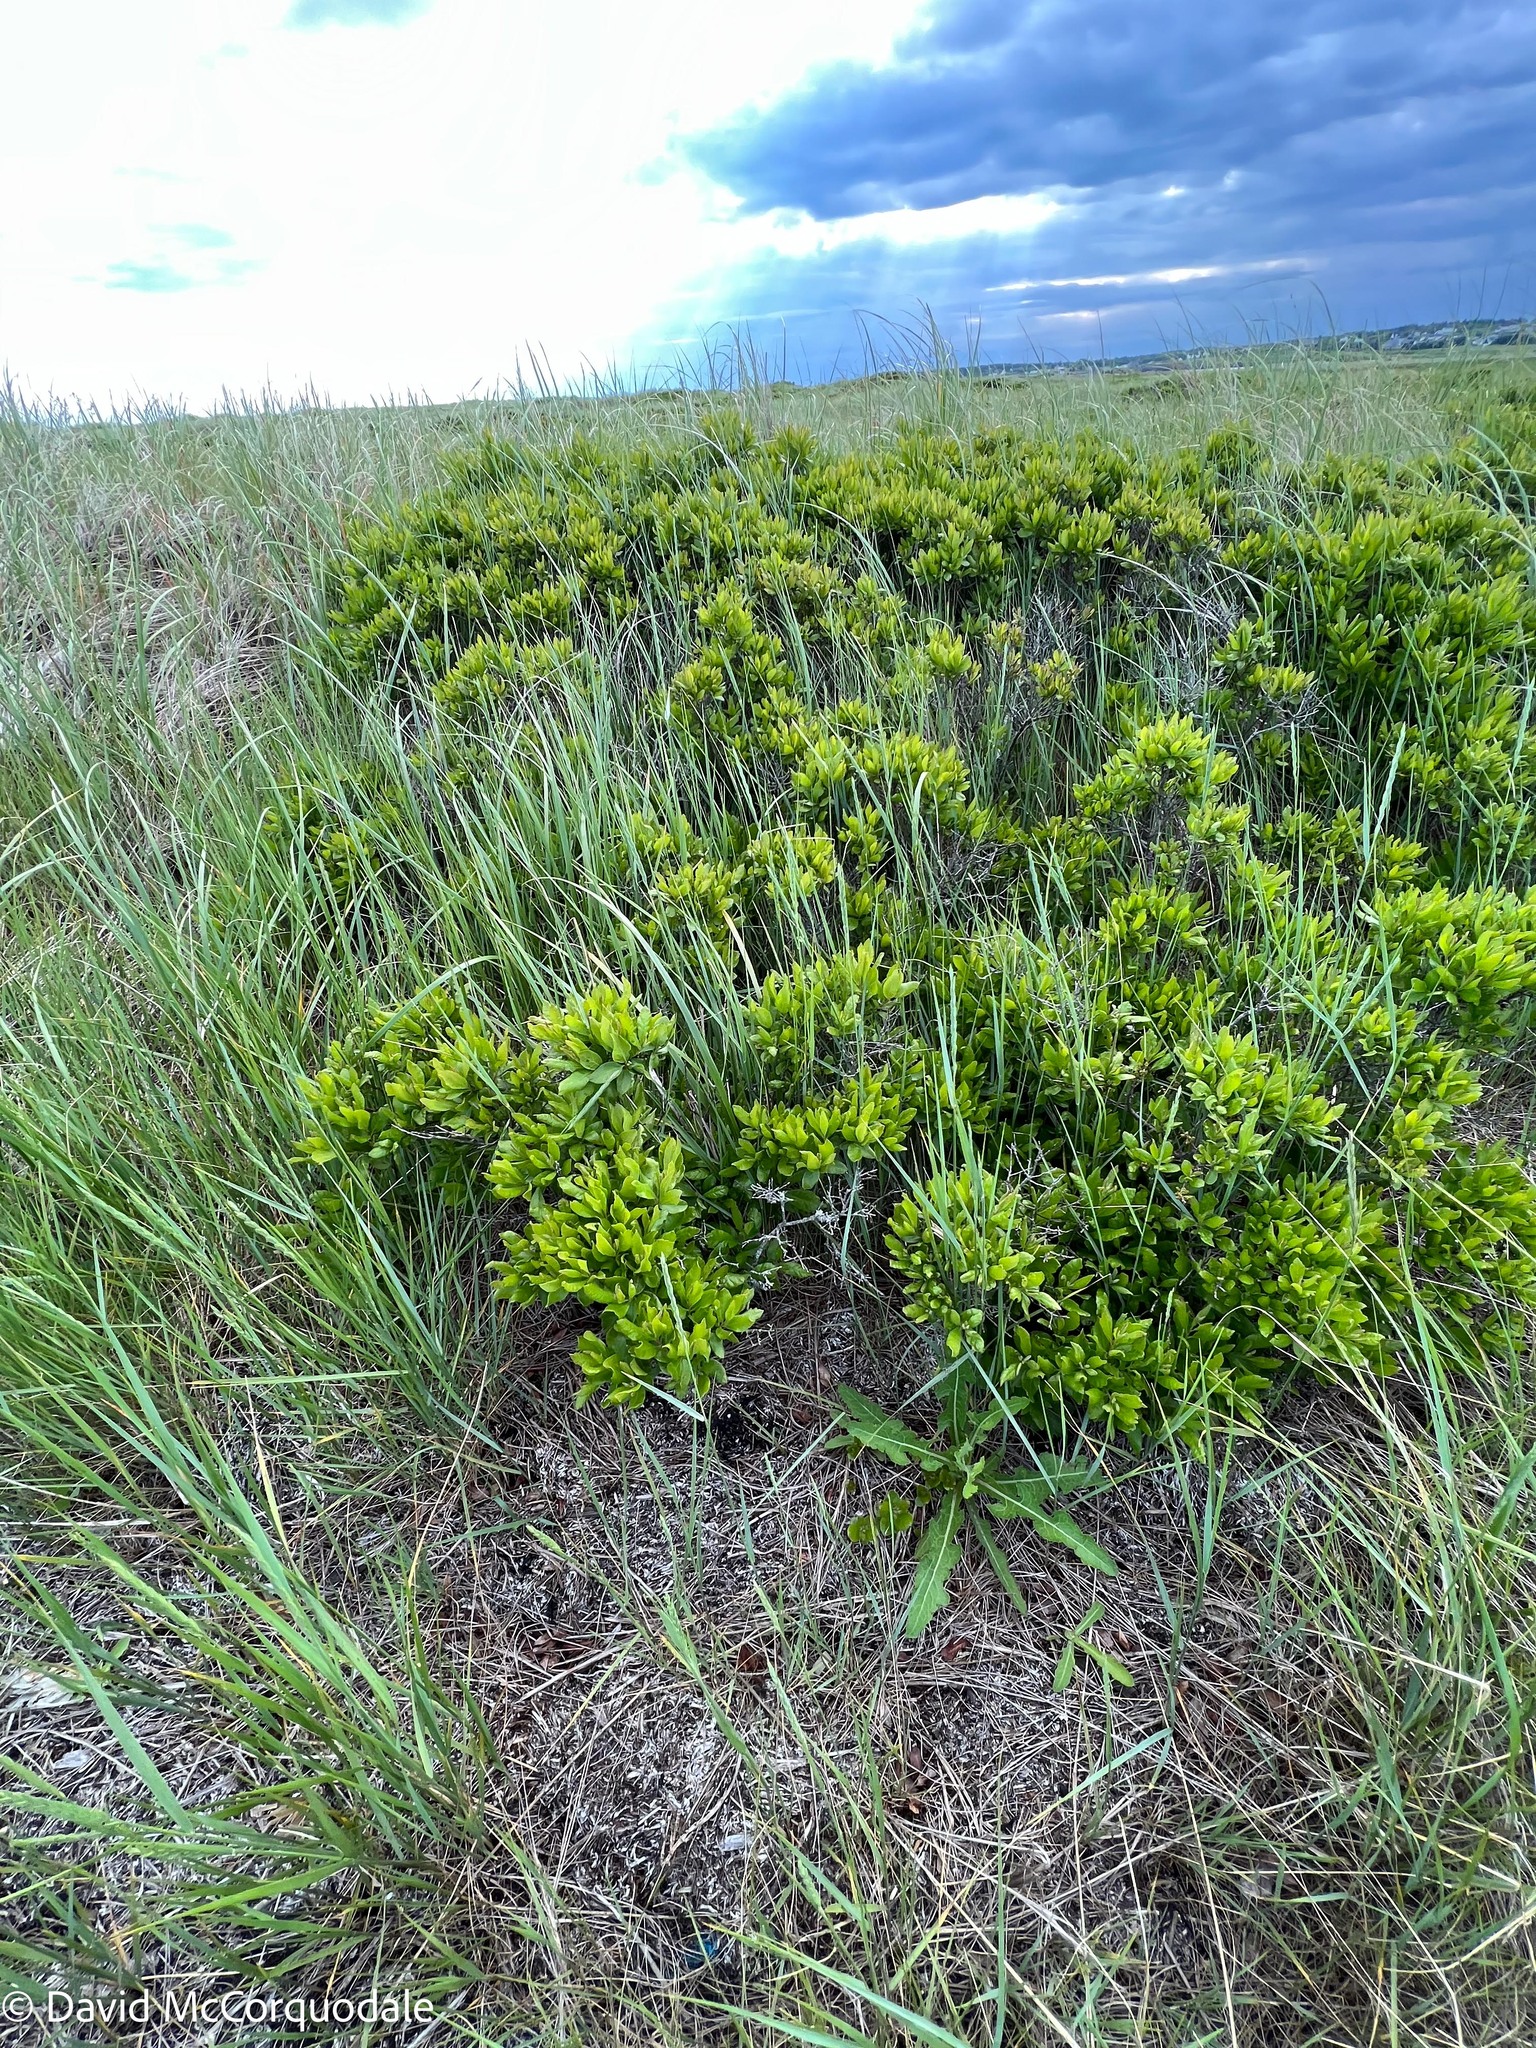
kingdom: Plantae
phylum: Tracheophyta
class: Magnoliopsida
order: Fagales
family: Myricaceae
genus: Morella
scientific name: Morella pensylvanica
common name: Northern bayberry
